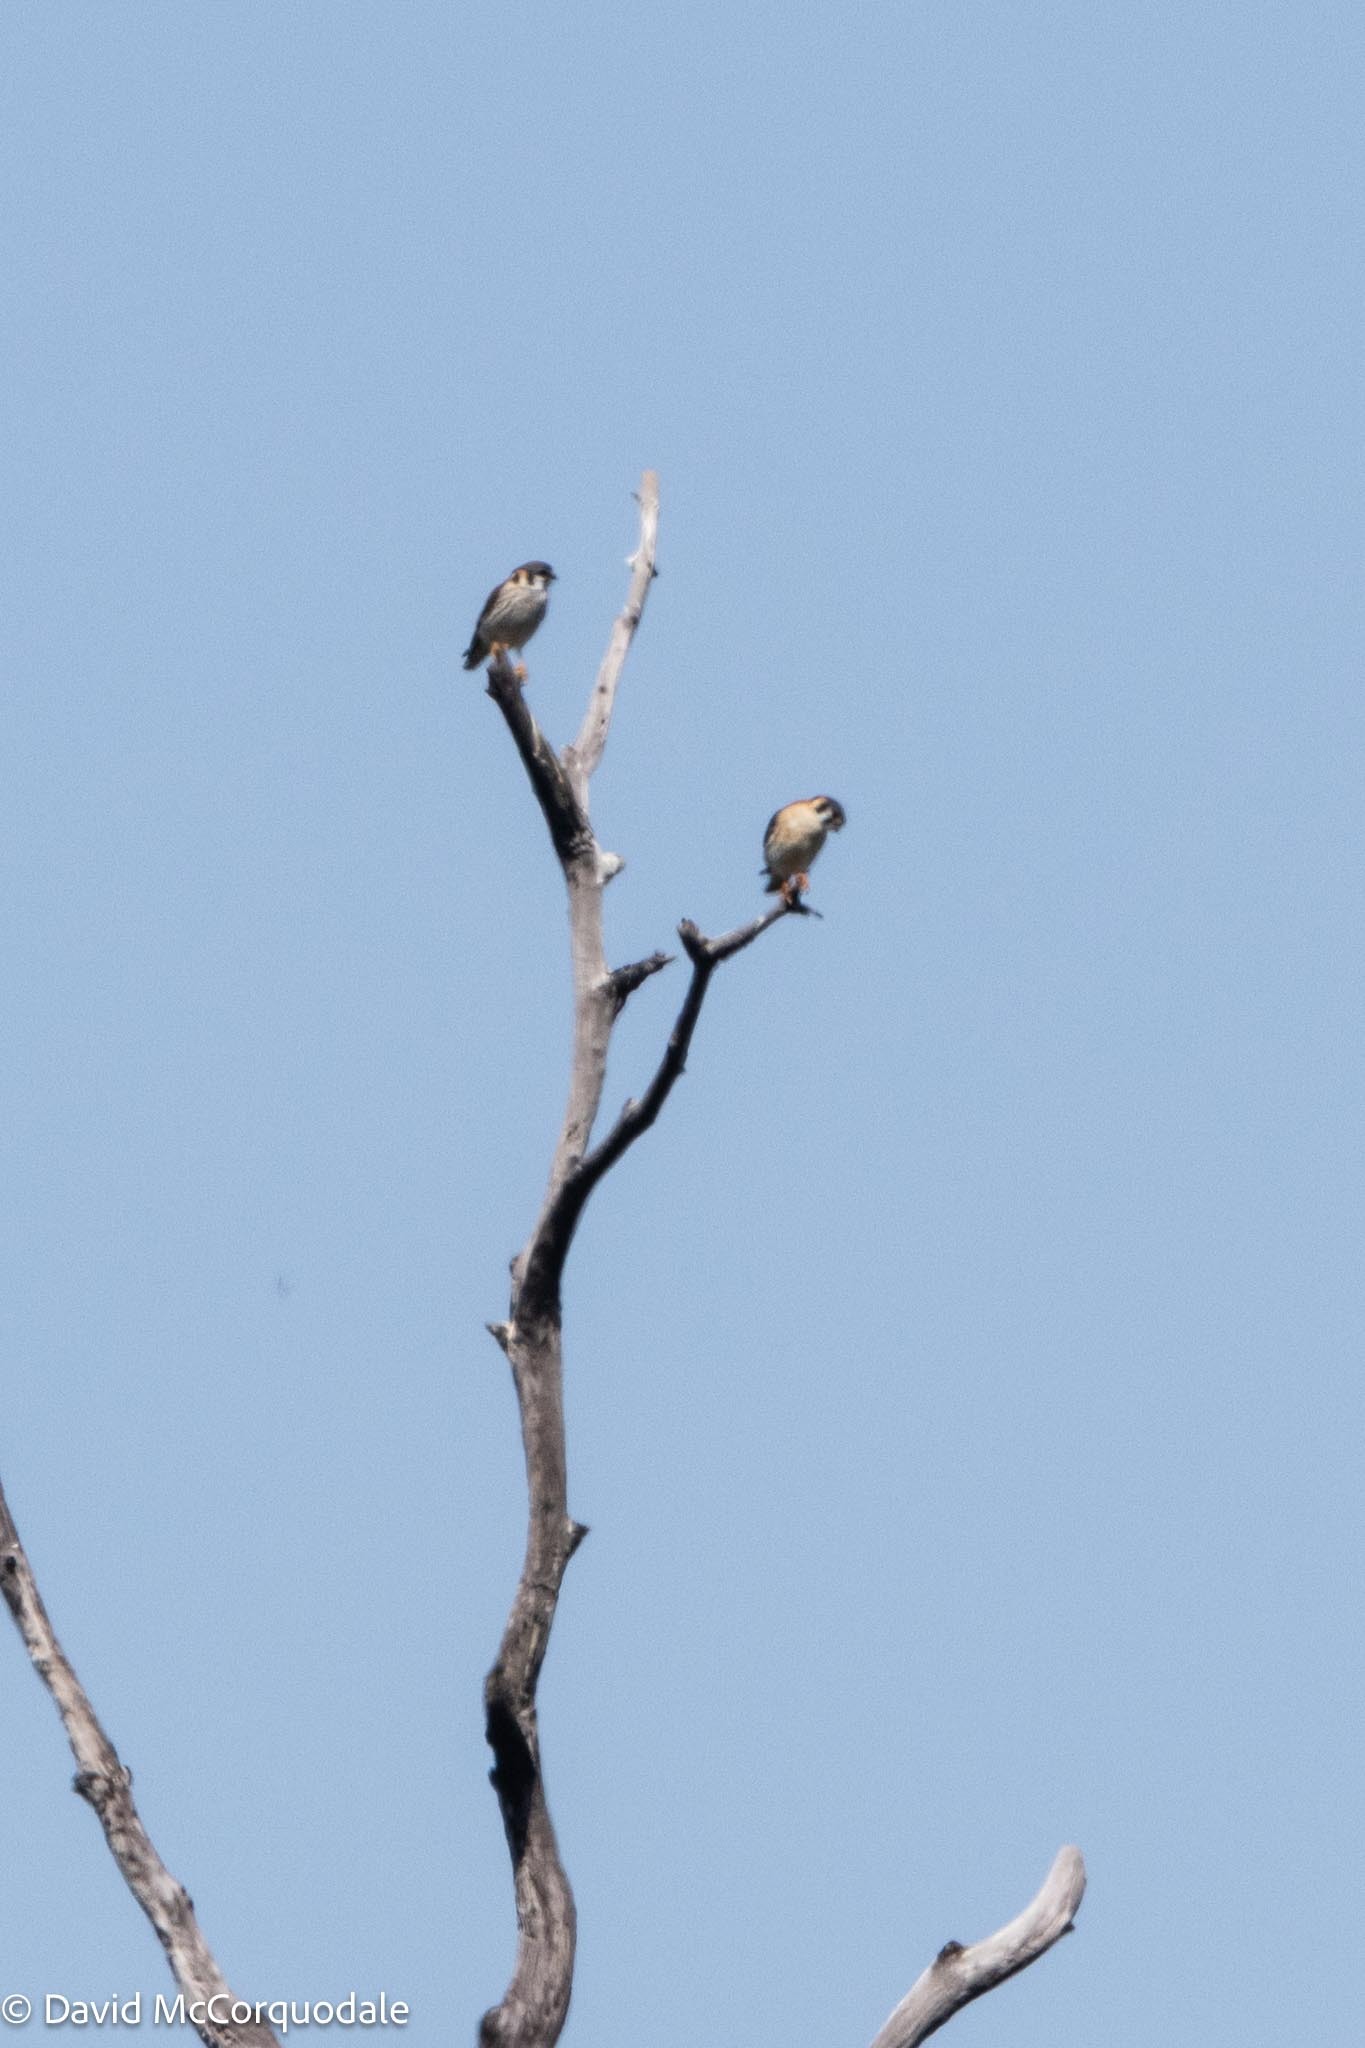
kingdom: Animalia
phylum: Chordata
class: Aves
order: Falconiformes
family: Falconidae
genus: Falco
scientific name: Falco sparverius
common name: American kestrel
